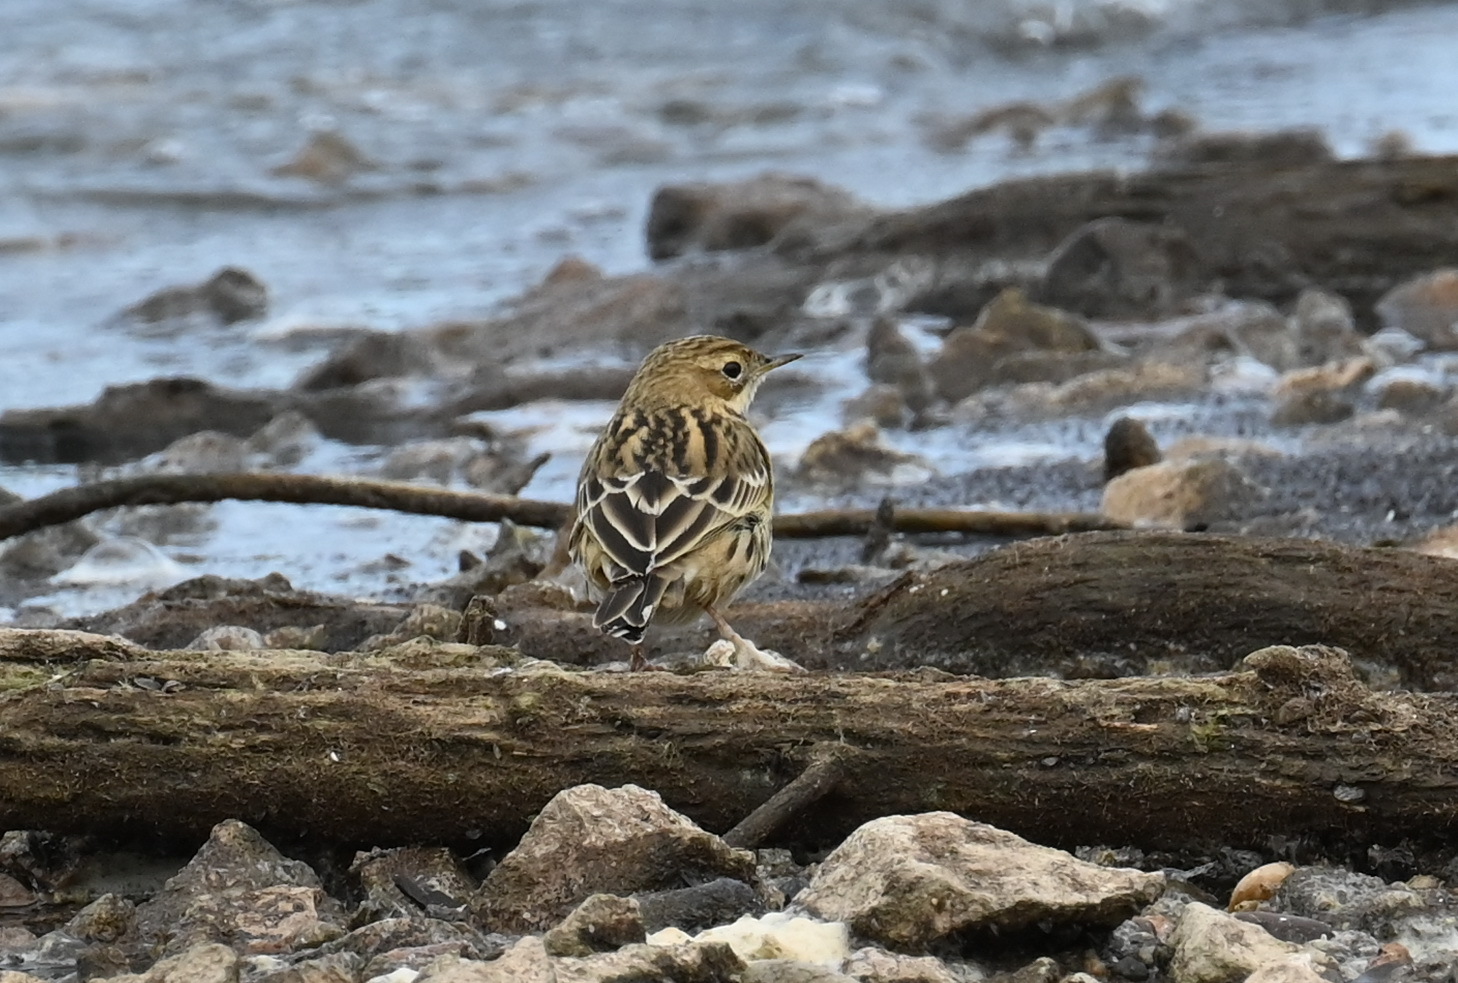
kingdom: Animalia
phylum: Chordata
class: Aves
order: Passeriformes
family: Motacillidae
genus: Anthus
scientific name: Anthus cervinus
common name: Red-throated pipit
